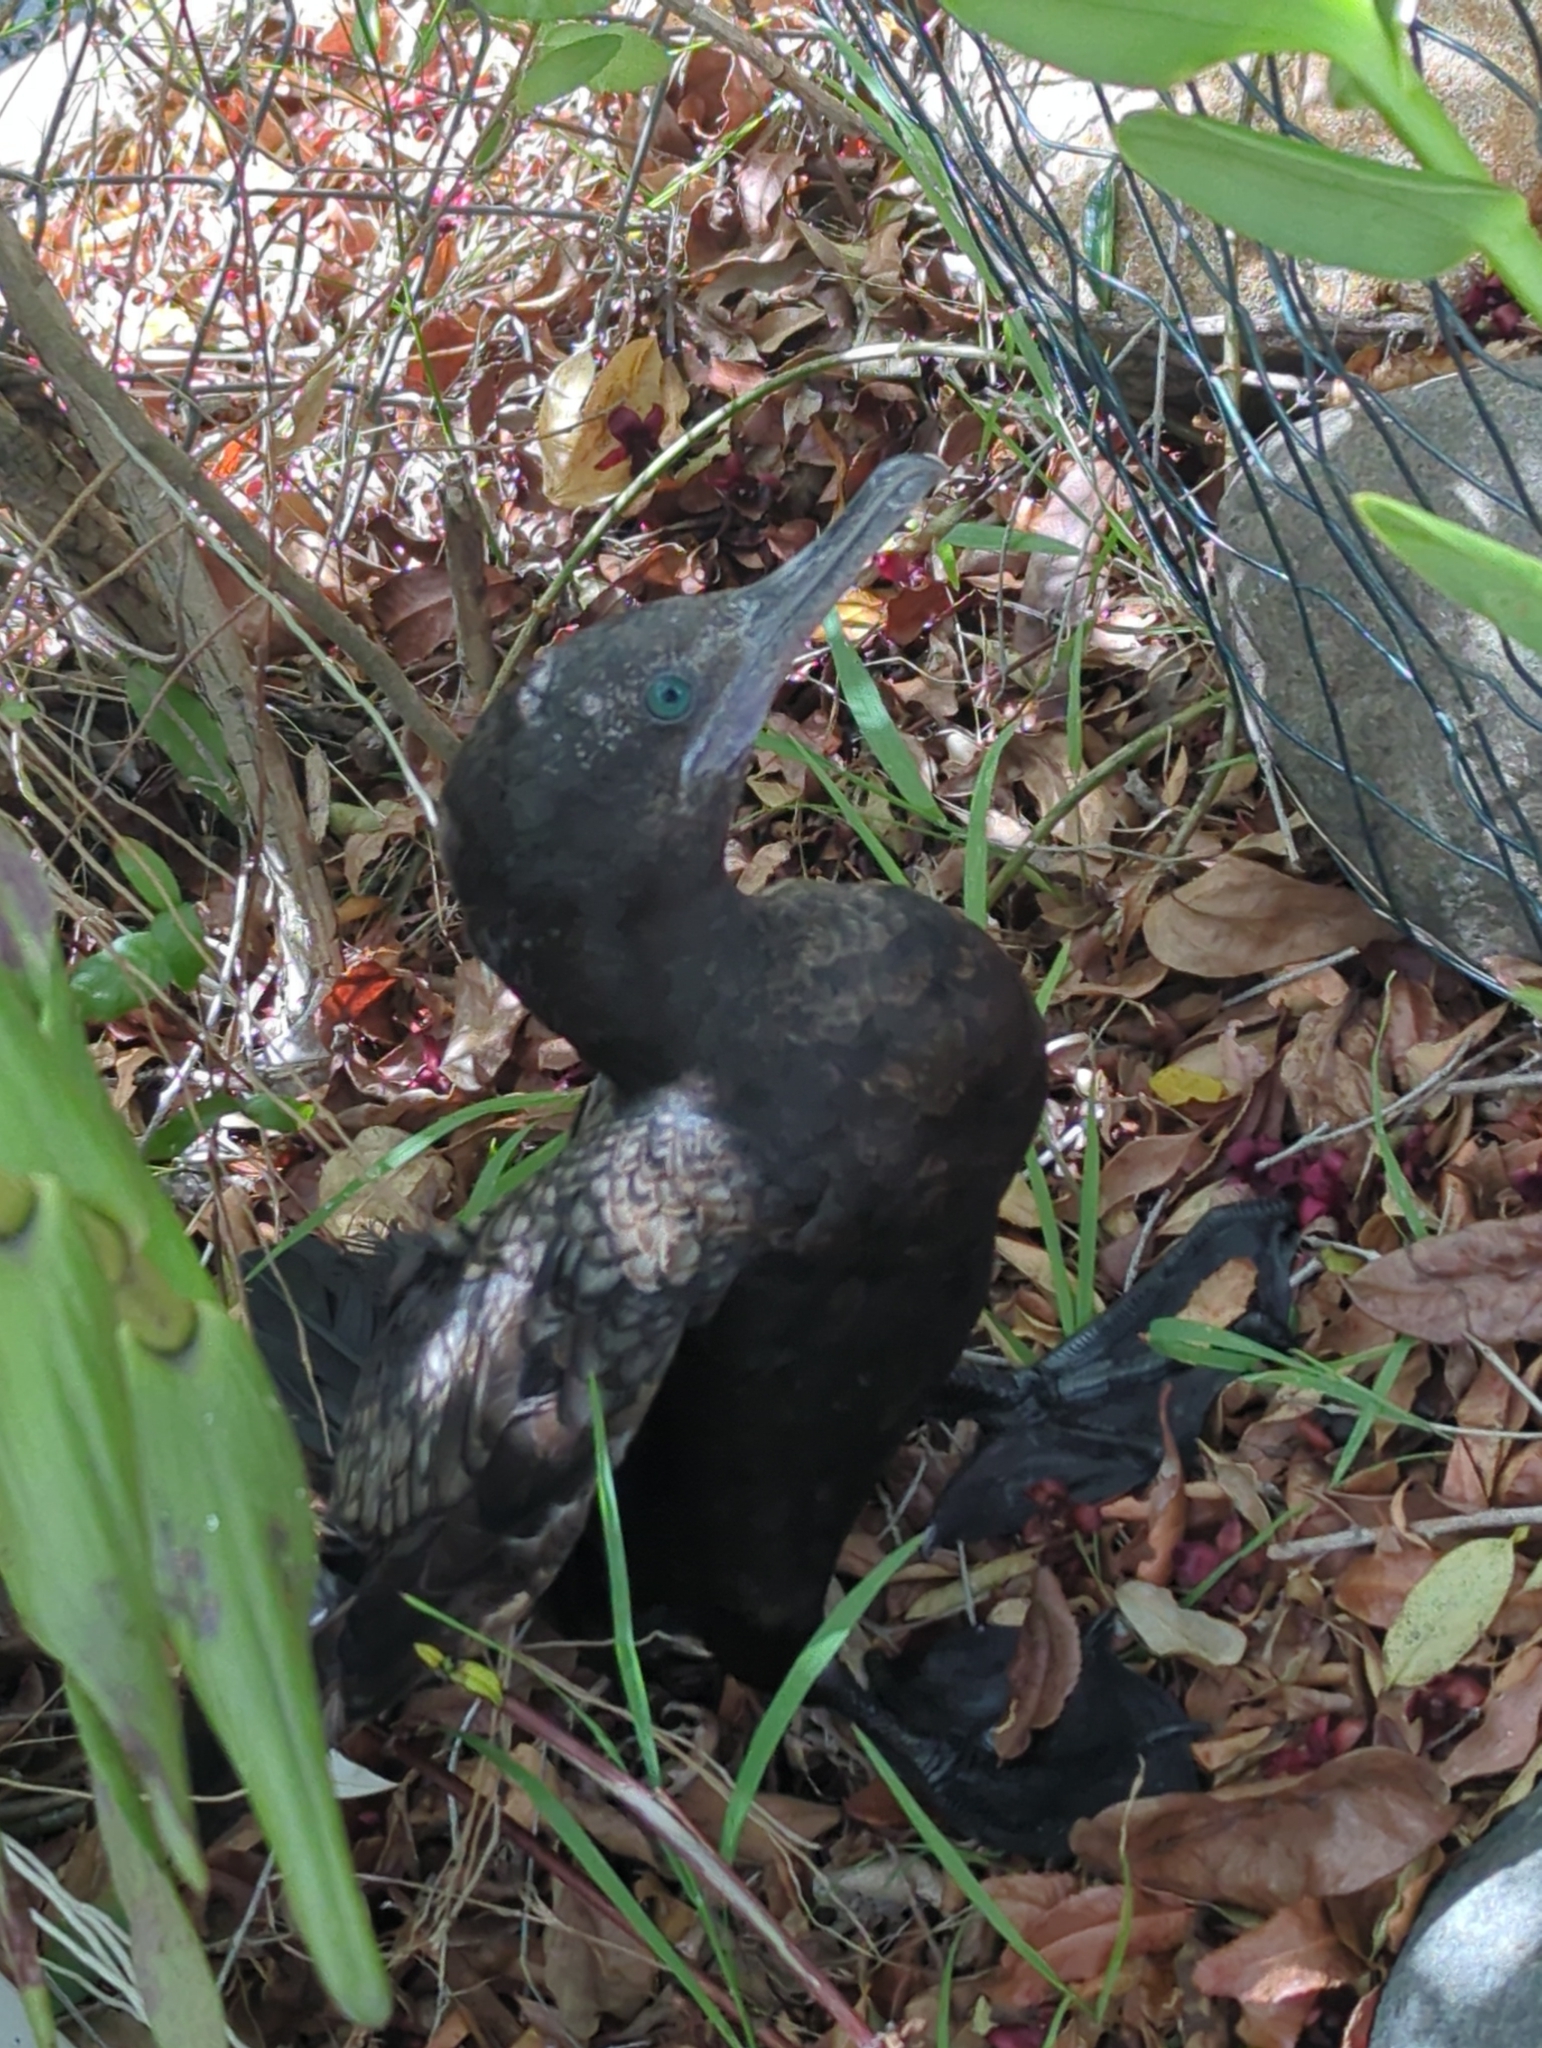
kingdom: Animalia
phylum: Chordata
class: Aves
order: Suliformes
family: Phalacrocoracidae
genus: Phalacrocorax
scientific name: Phalacrocorax sulcirostris
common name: Little black cormorant
